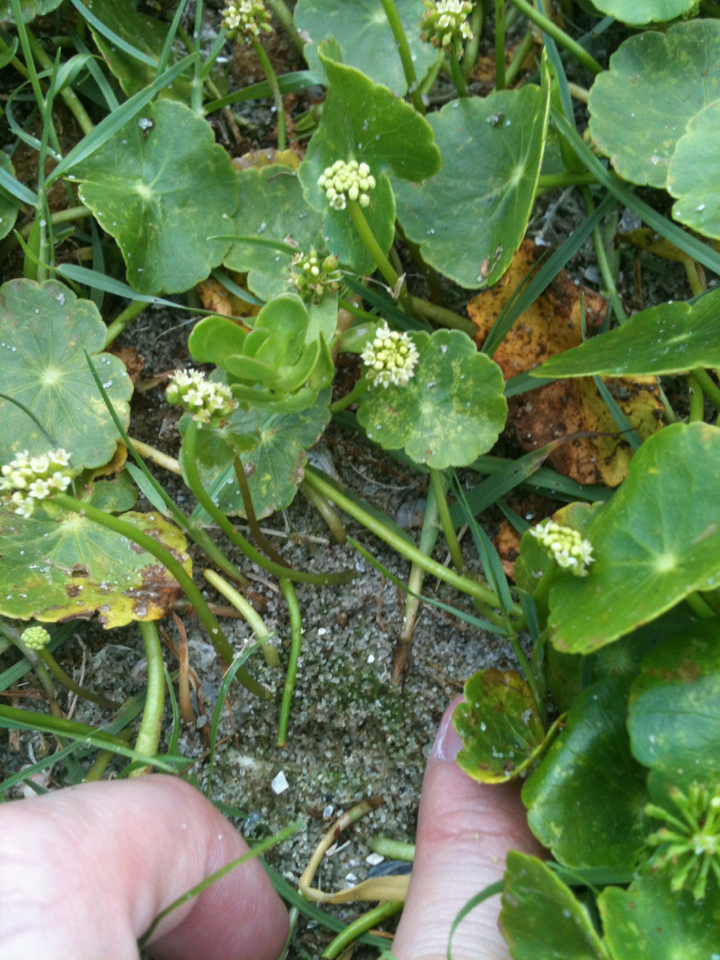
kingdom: Plantae
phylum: Tracheophyta
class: Magnoliopsida
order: Apiales
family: Araliaceae
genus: Hydrocotyle
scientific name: Hydrocotyle bonariensis
